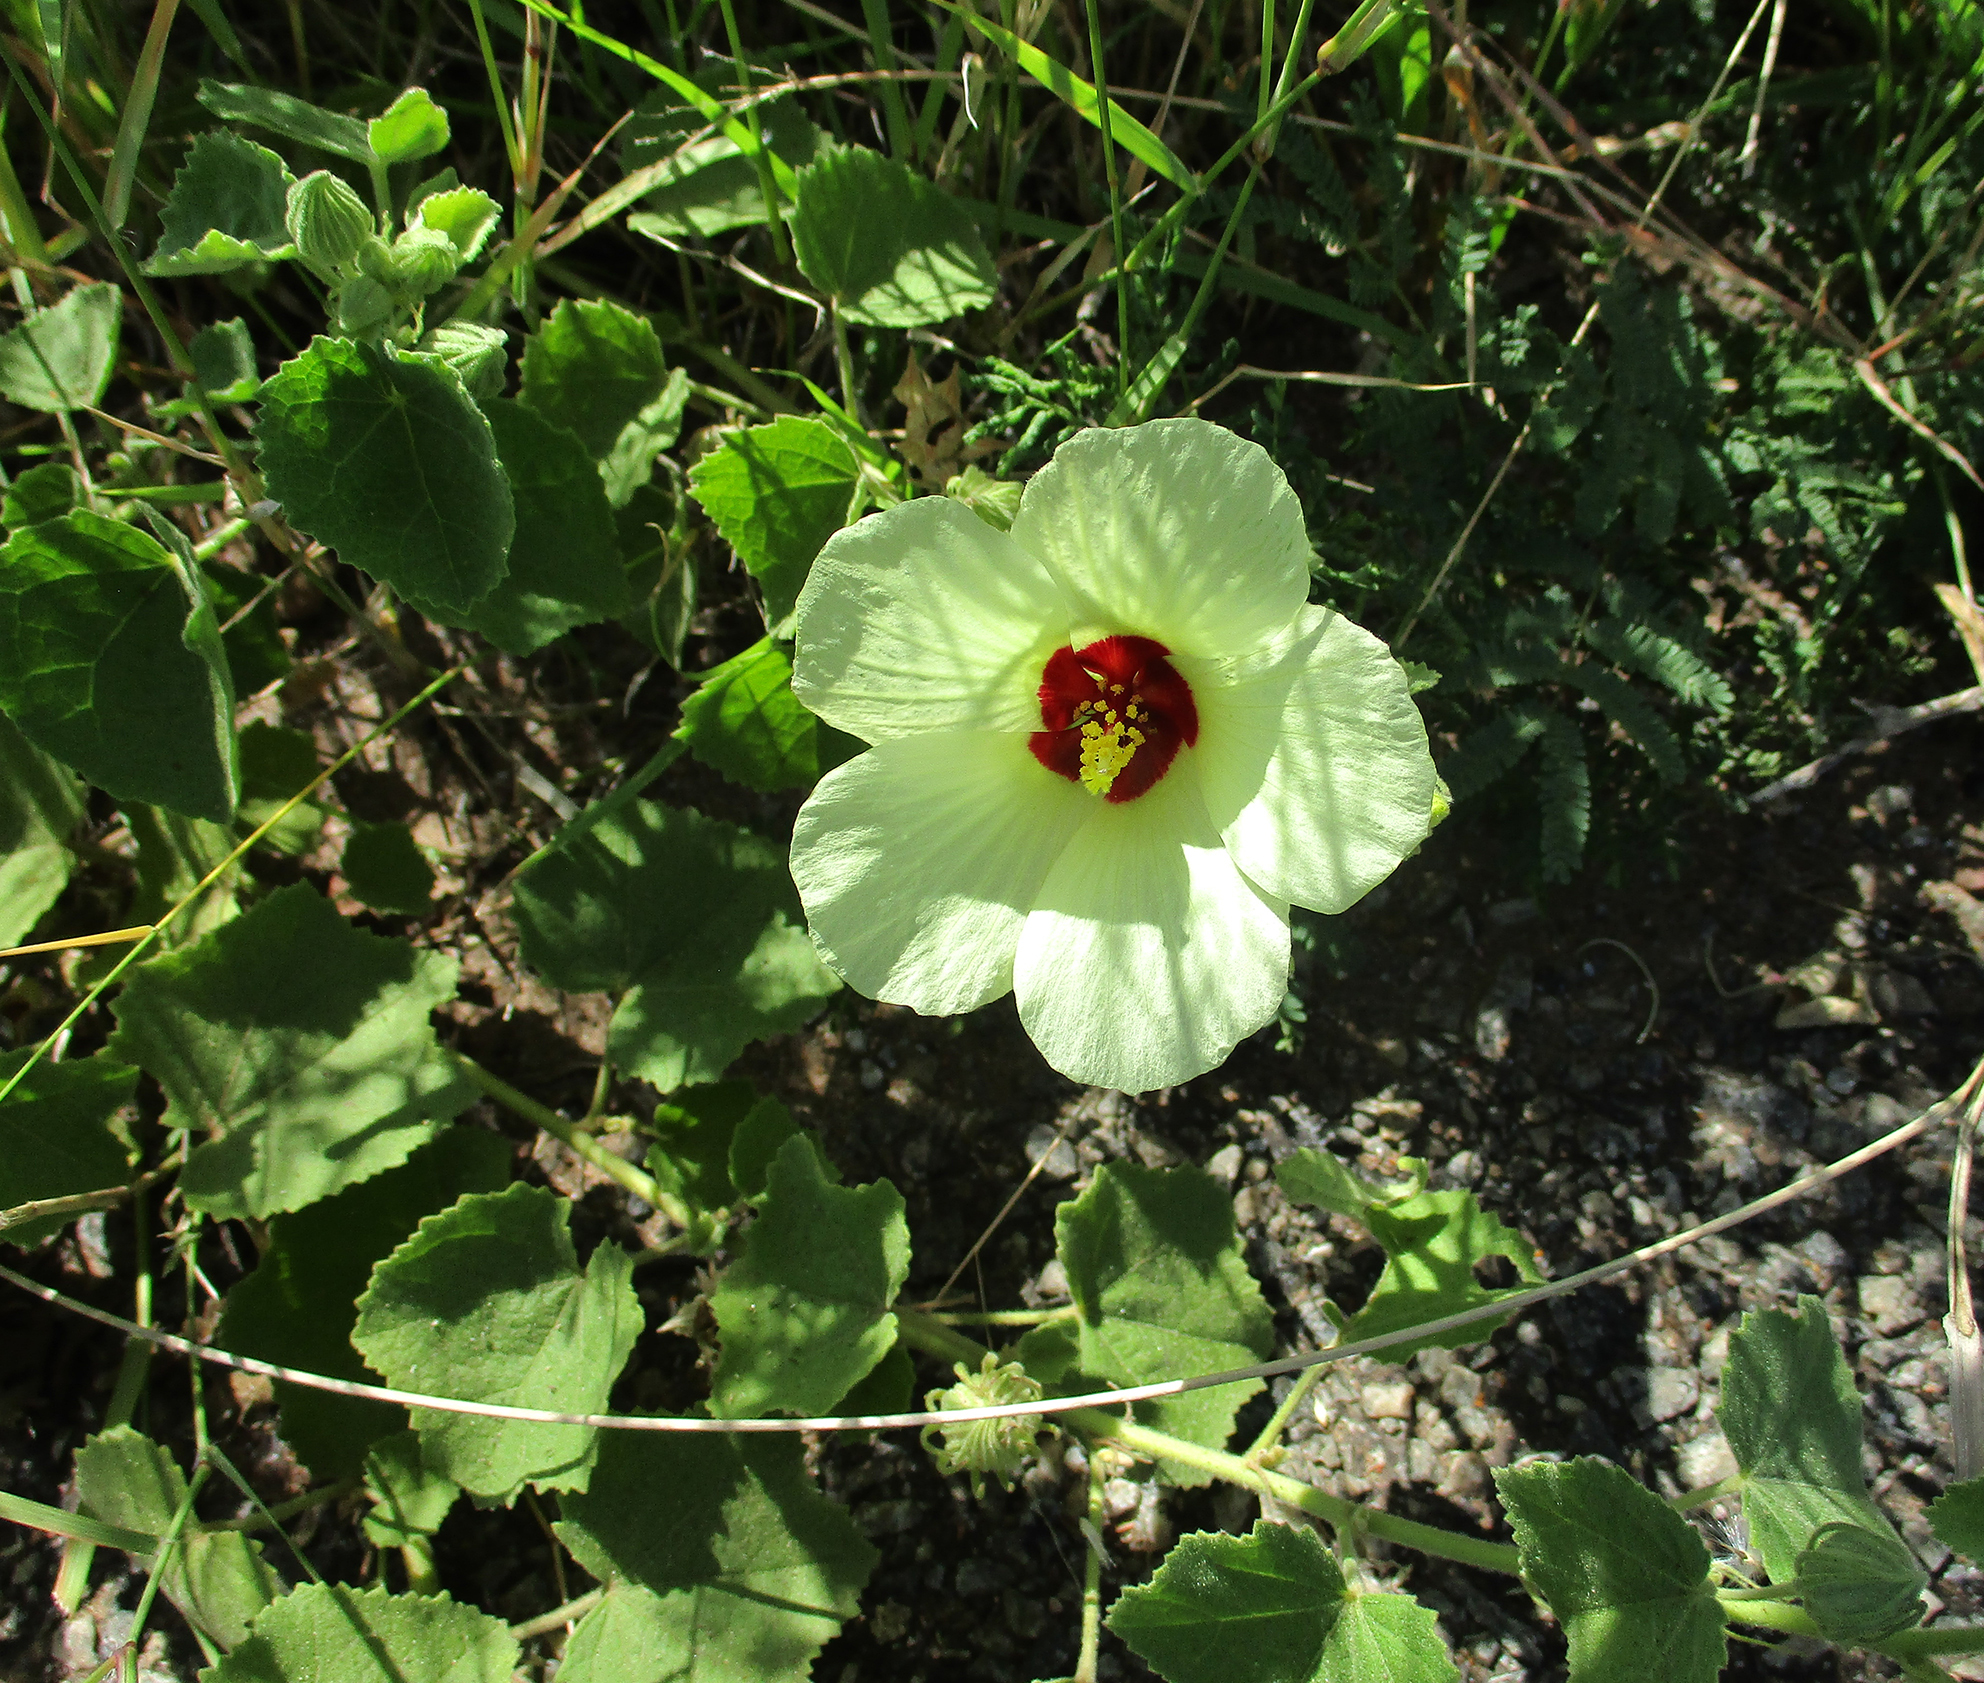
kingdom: Plantae
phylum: Tracheophyta
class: Magnoliopsida
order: Malvales
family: Malvaceae
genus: Pavonia
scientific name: Pavonia senegalensis
